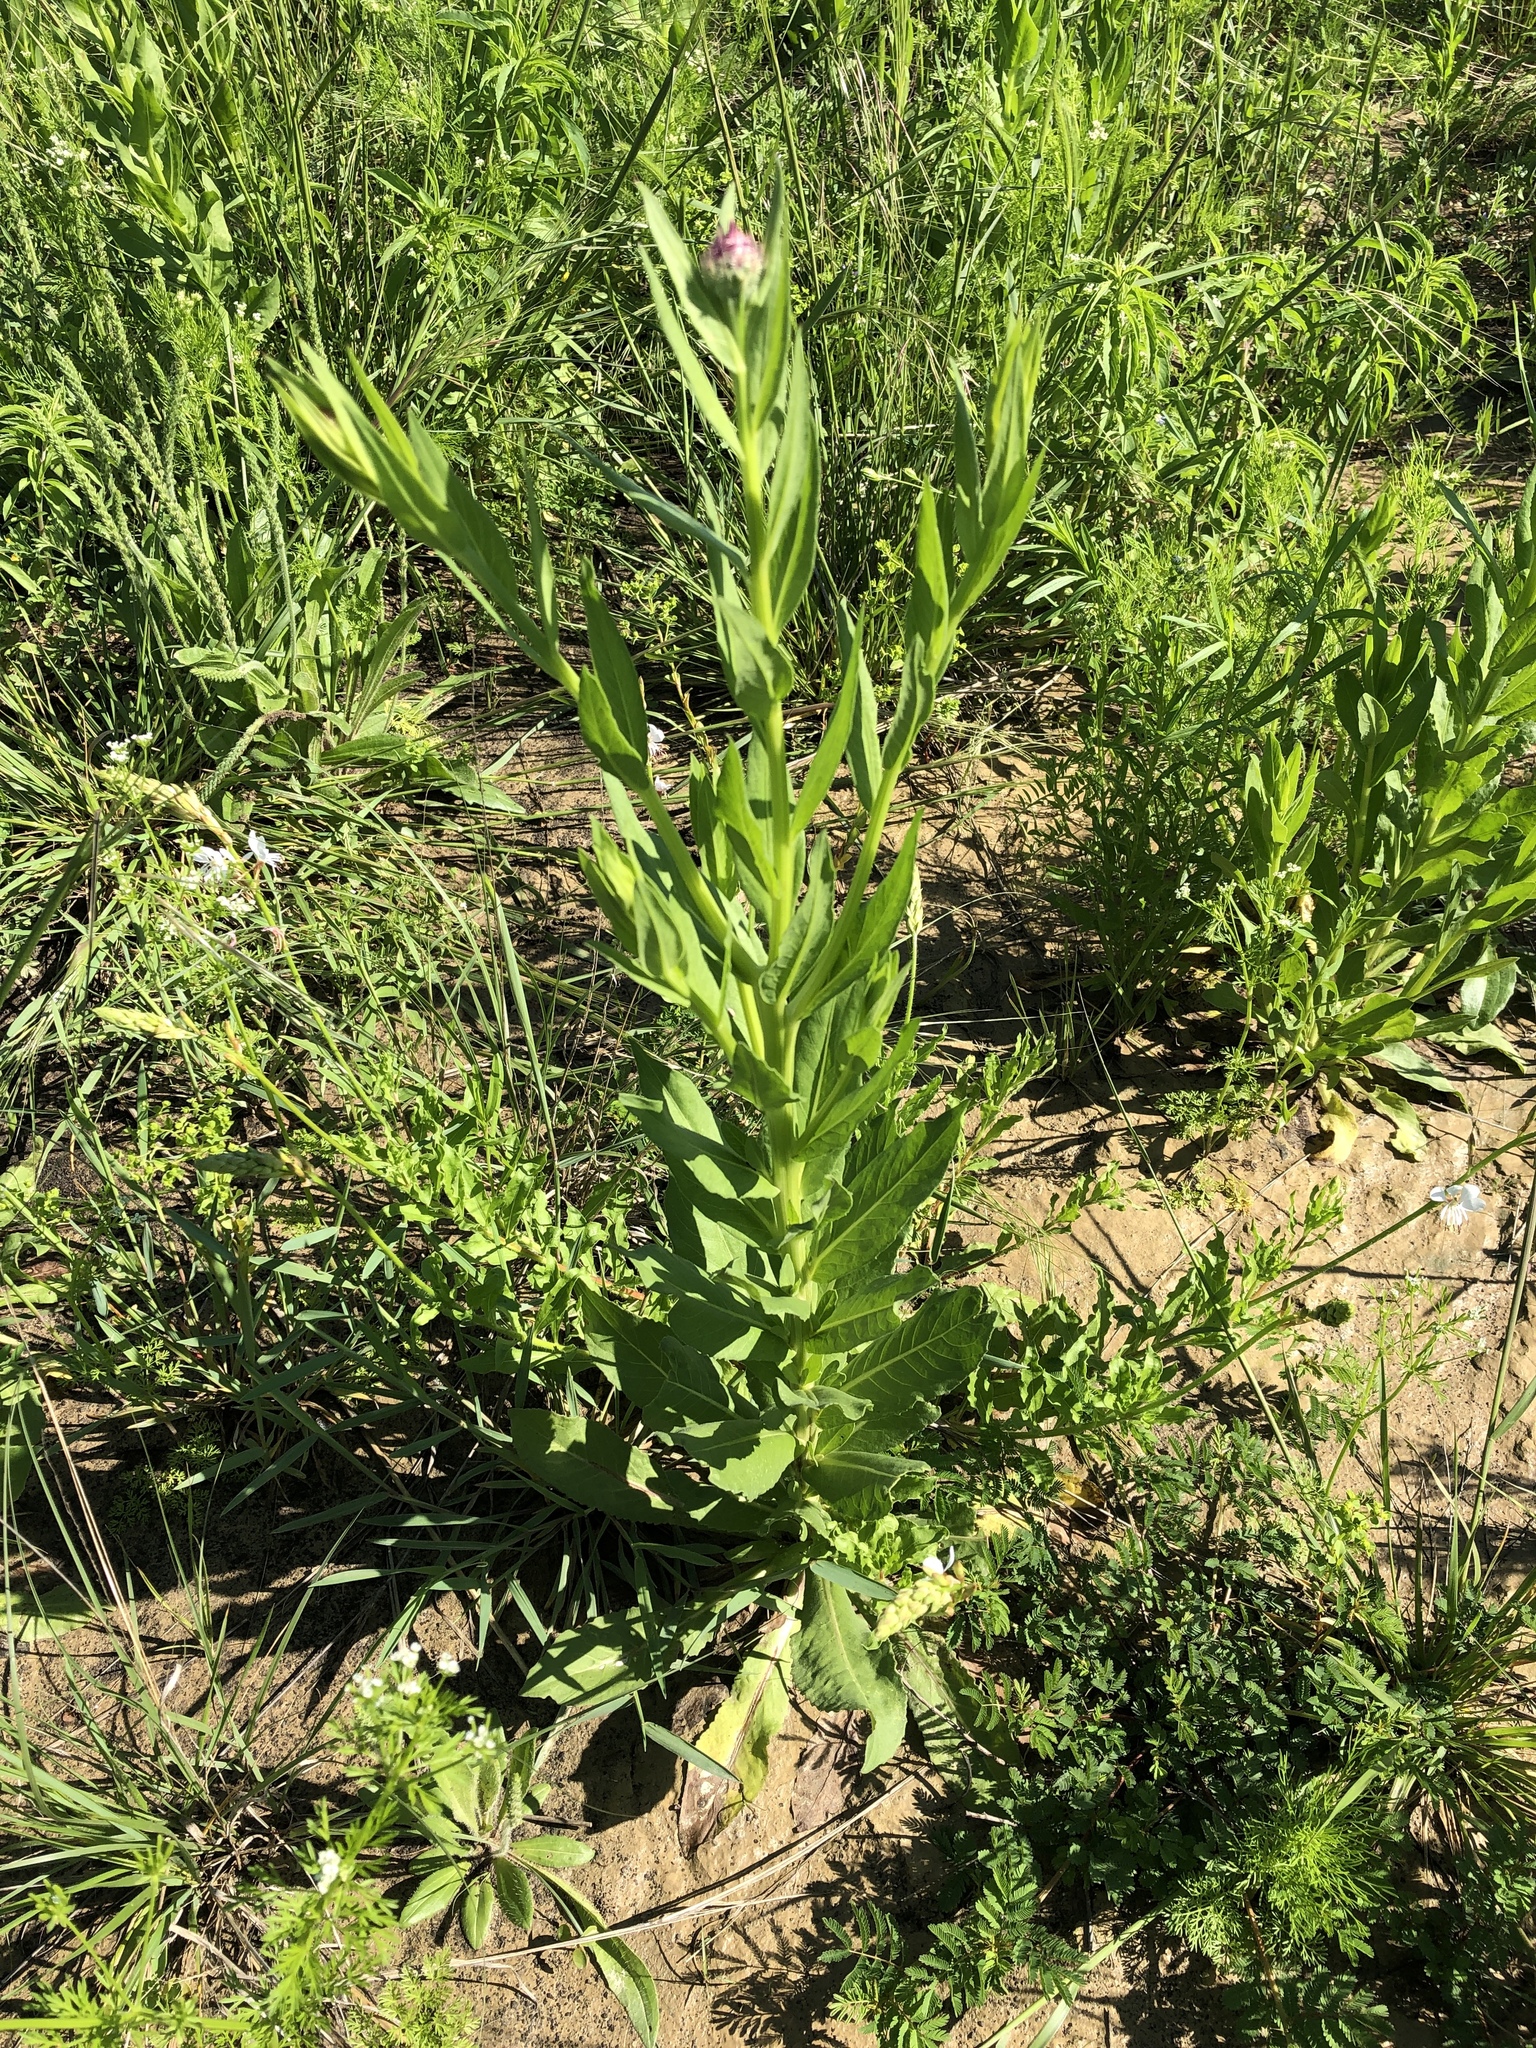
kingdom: Plantae
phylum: Tracheophyta
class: Magnoliopsida
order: Asterales
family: Asteraceae
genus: Plectocephalus
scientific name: Plectocephalus americanus
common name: American basket-flower
